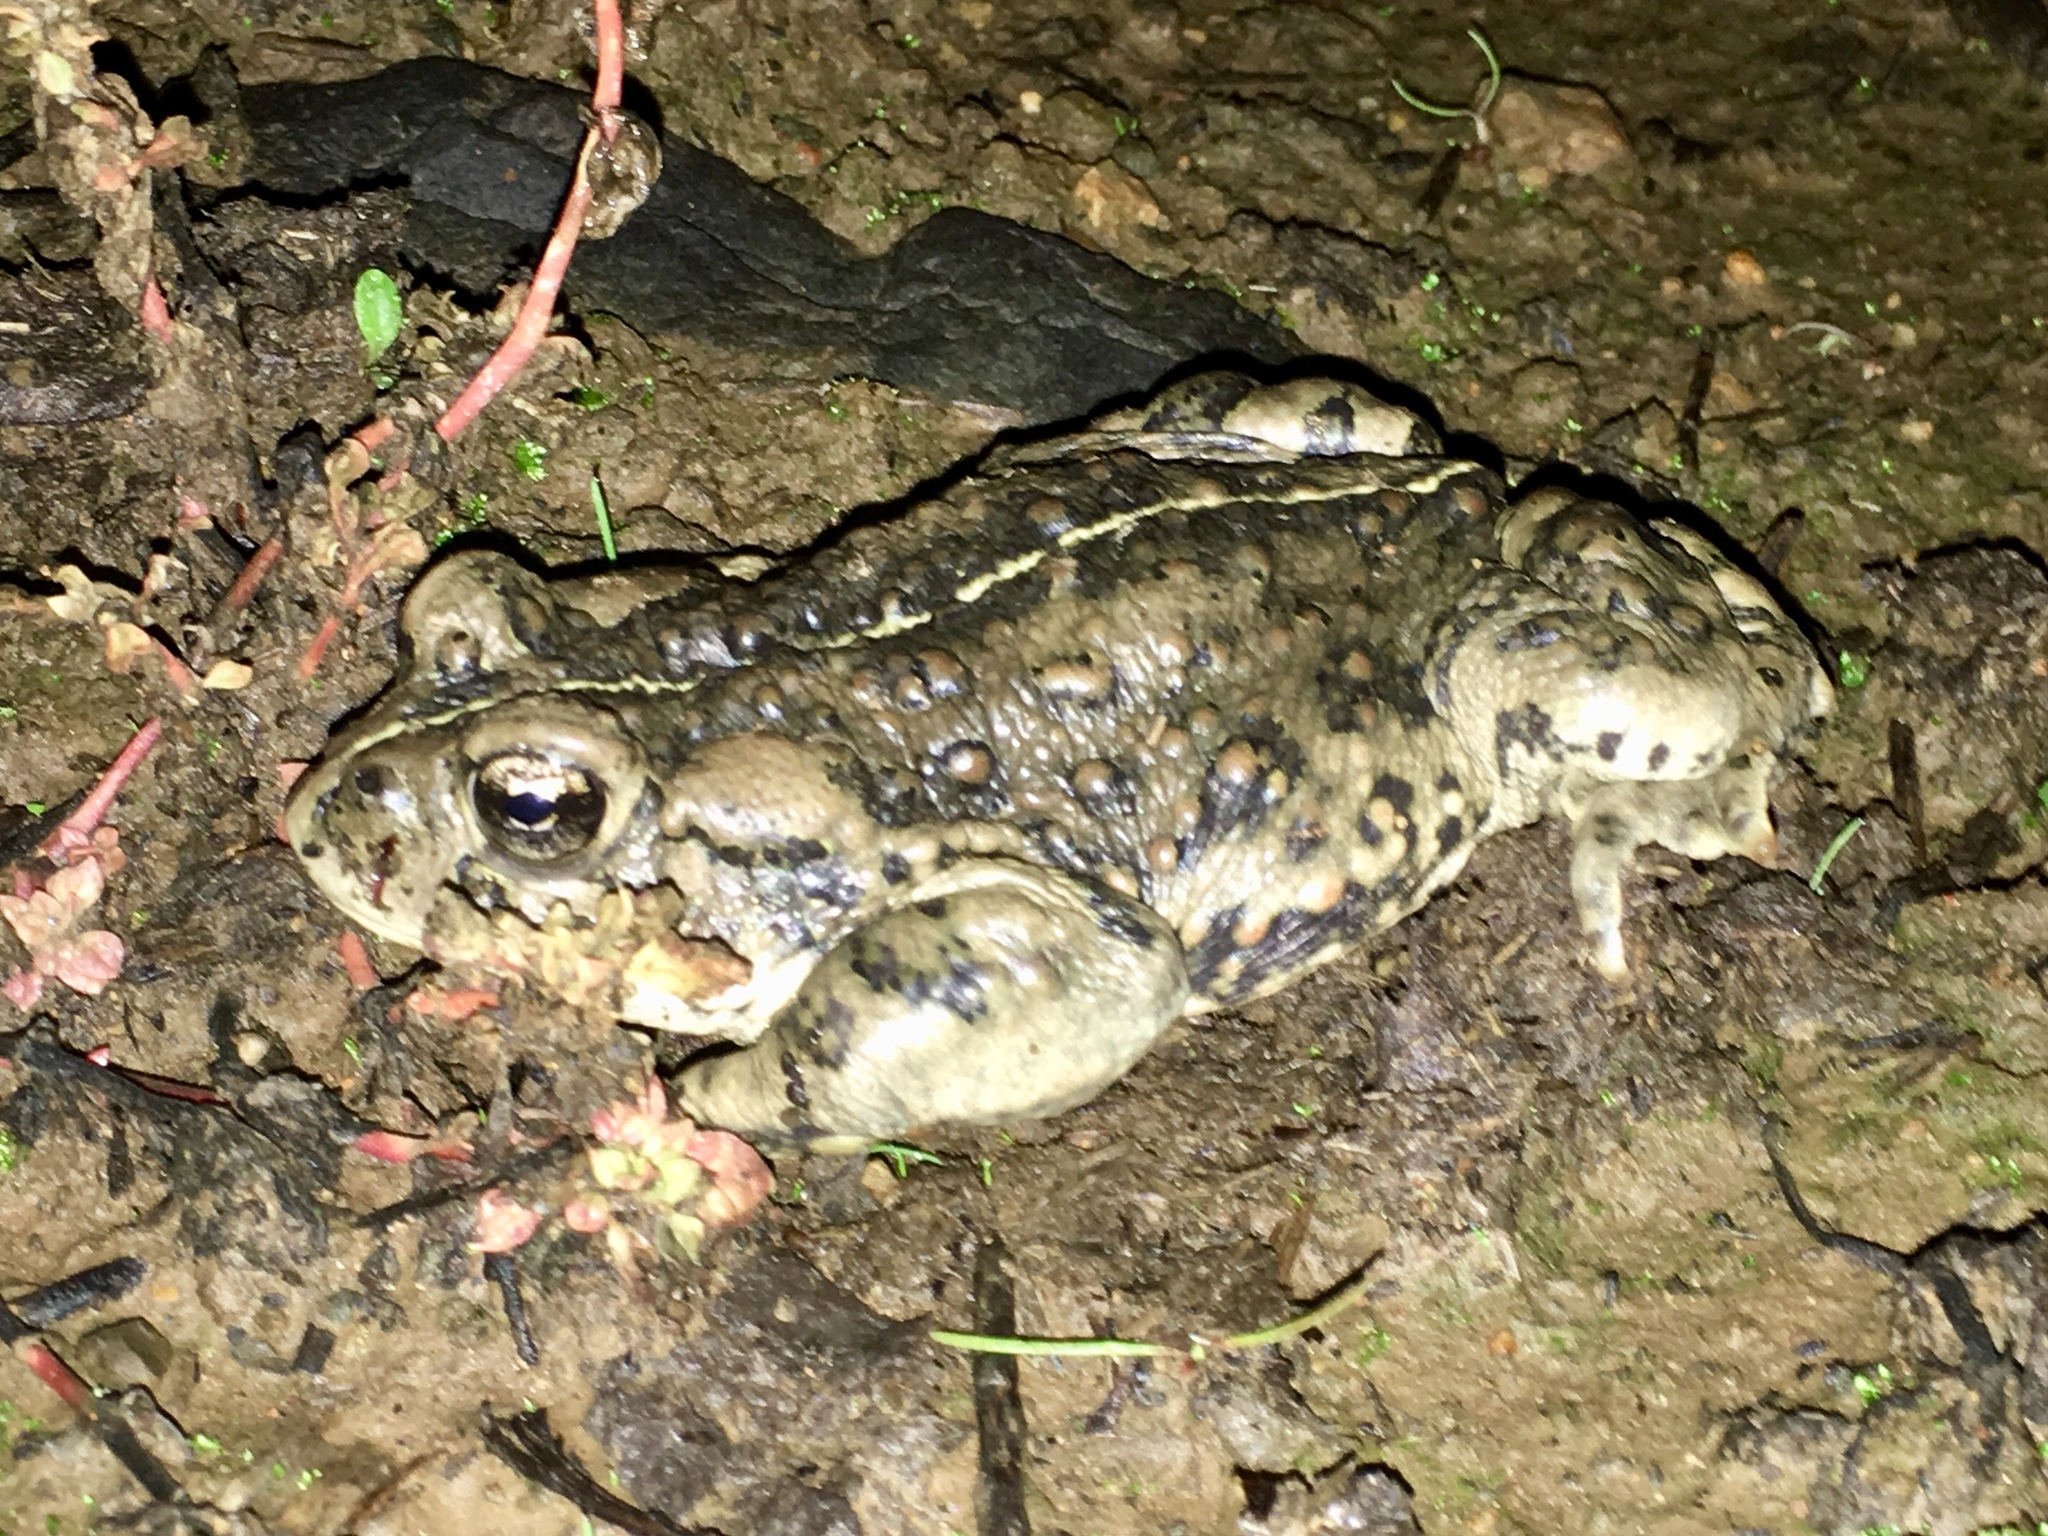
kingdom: Animalia
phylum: Chordata
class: Amphibia
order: Anura
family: Bufonidae
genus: Anaxyrus
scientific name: Anaxyrus boreas
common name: Western toad
